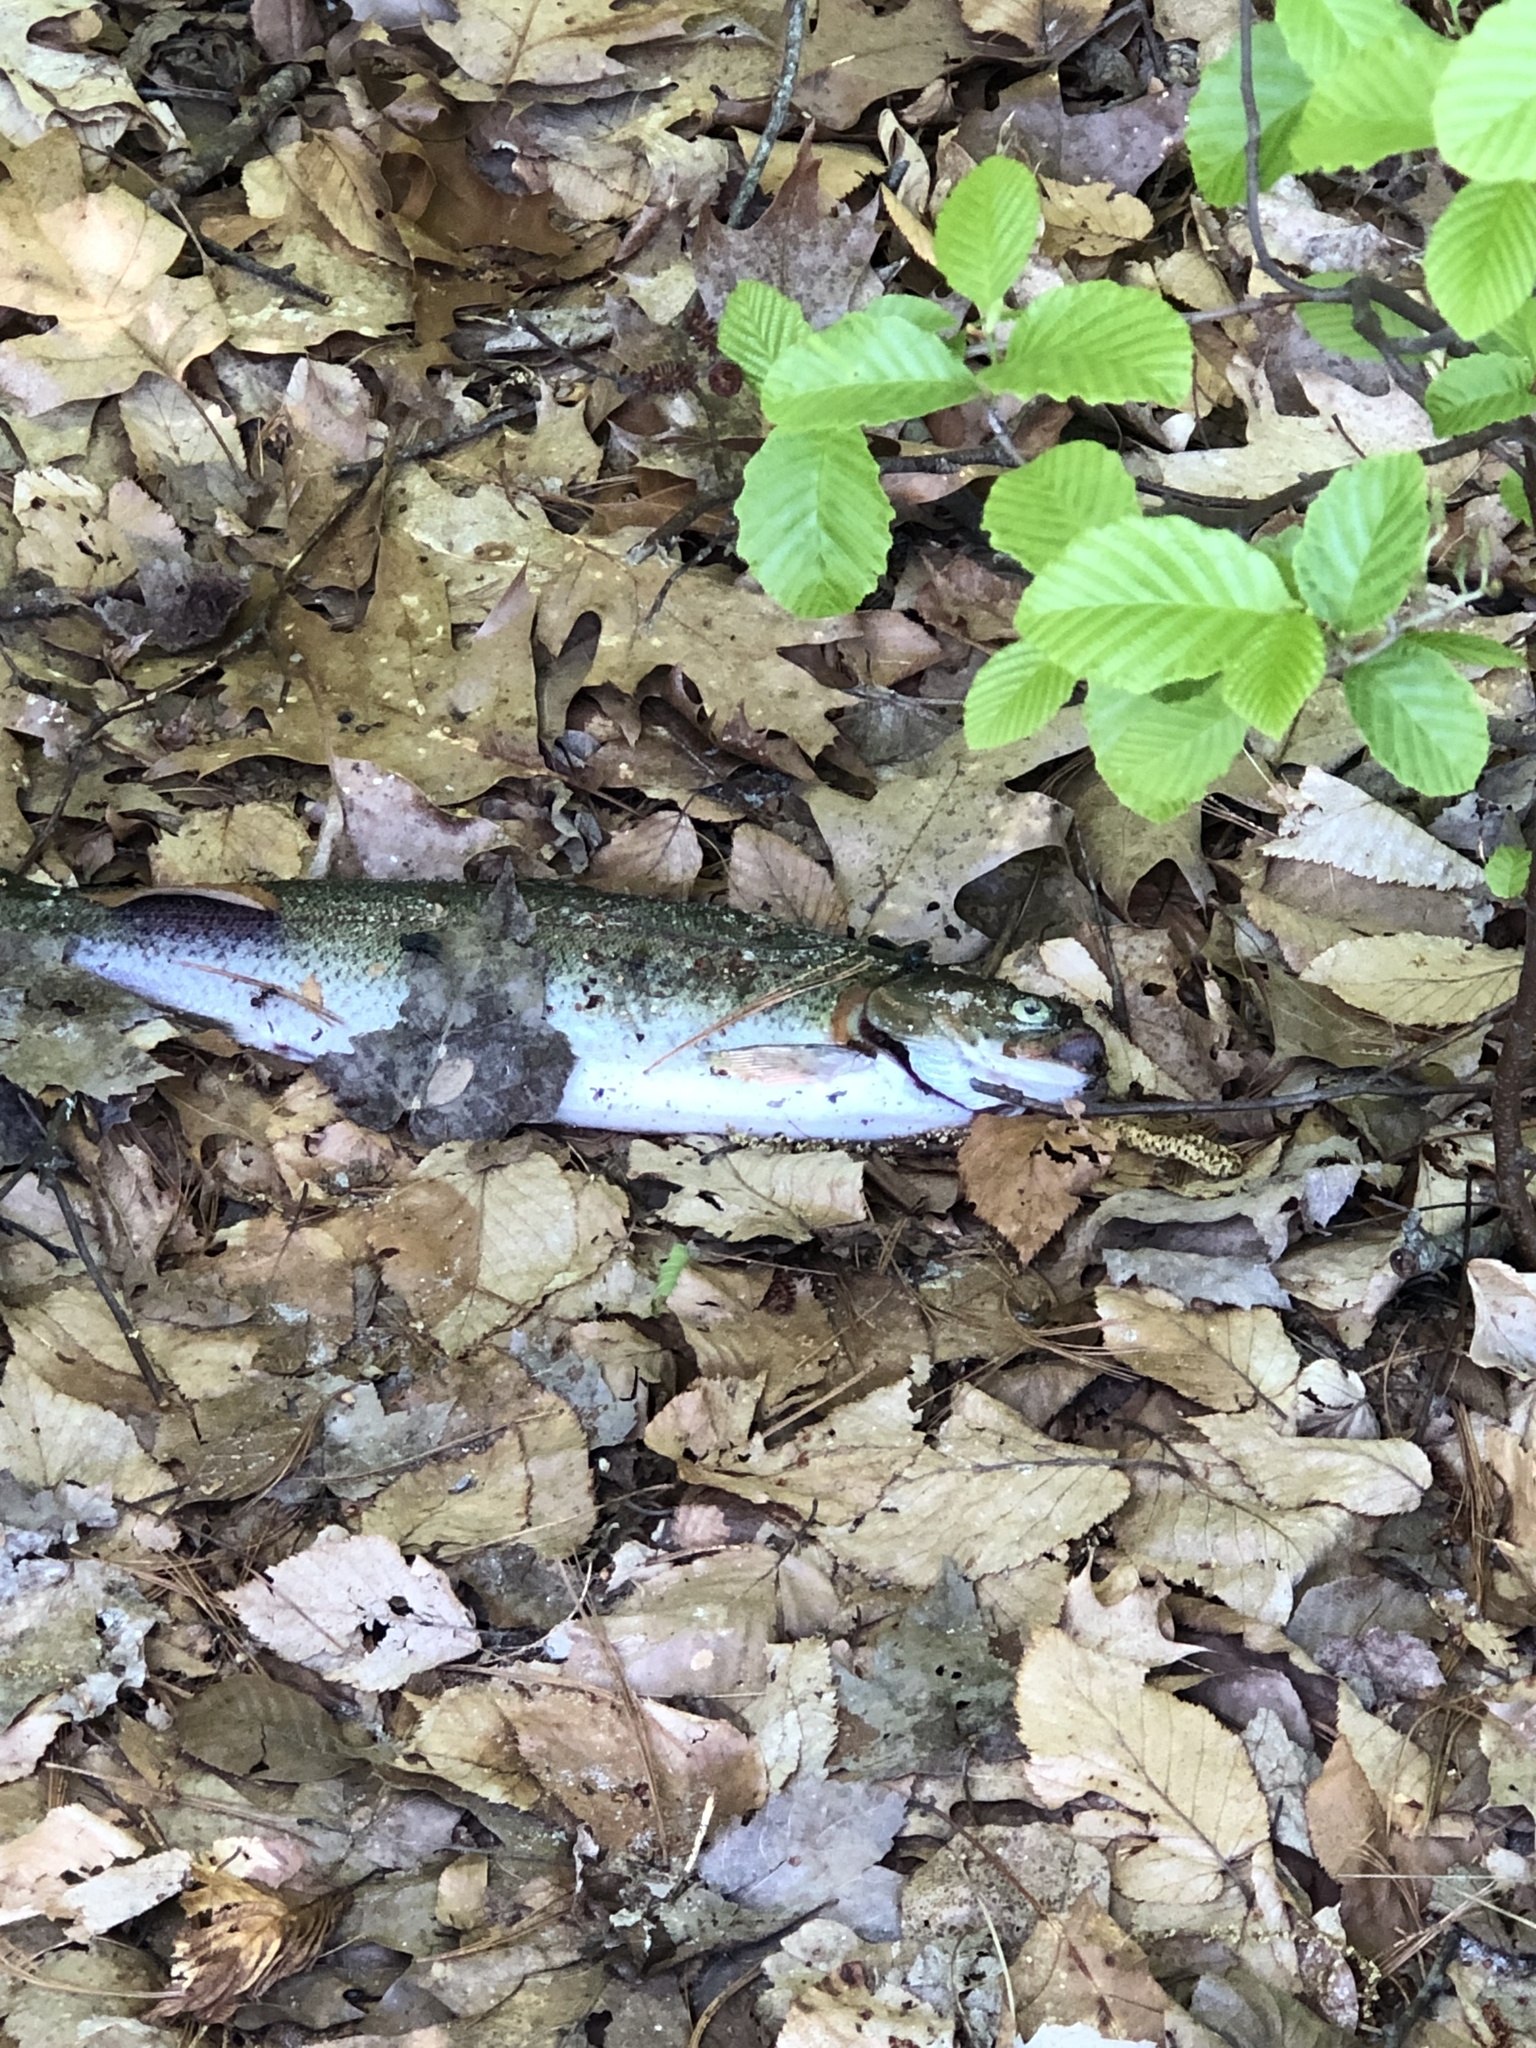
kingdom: Animalia
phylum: Chordata
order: Salmoniformes
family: Salmonidae
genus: Oncorhynchus
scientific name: Oncorhynchus mykiss
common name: Rainbow trout
